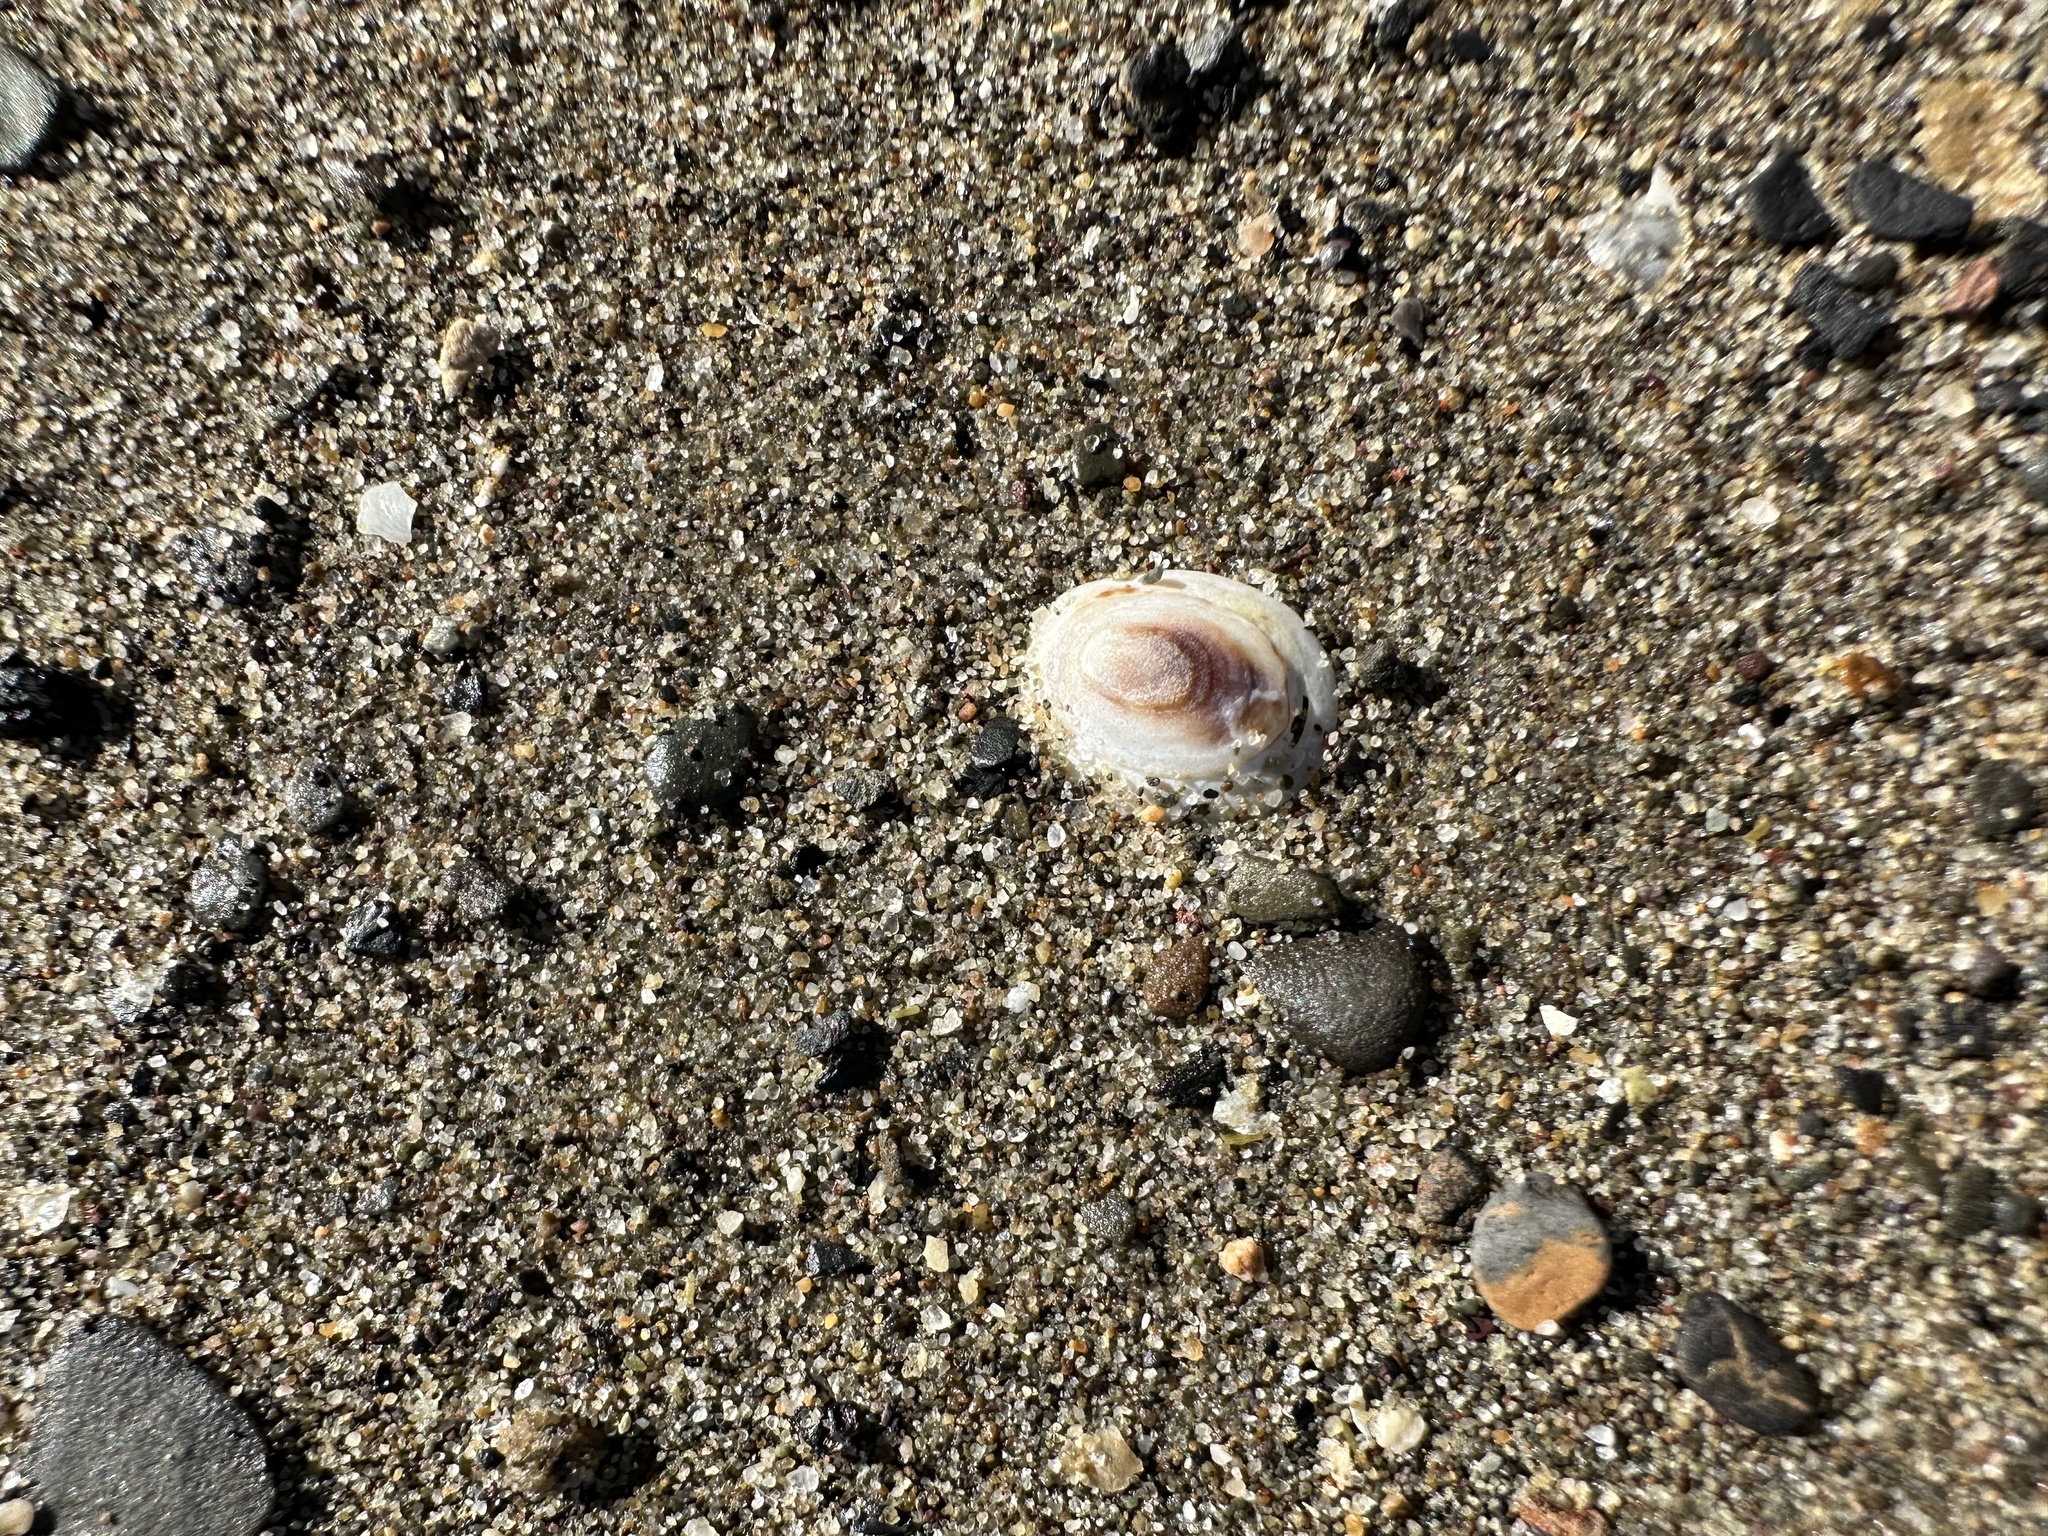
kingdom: Animalia
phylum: Mollusca
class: Gastropoda
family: Lottiidae
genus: Testudinalia
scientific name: Testudinalia testudinalis
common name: Common tortoiseshell limpet
